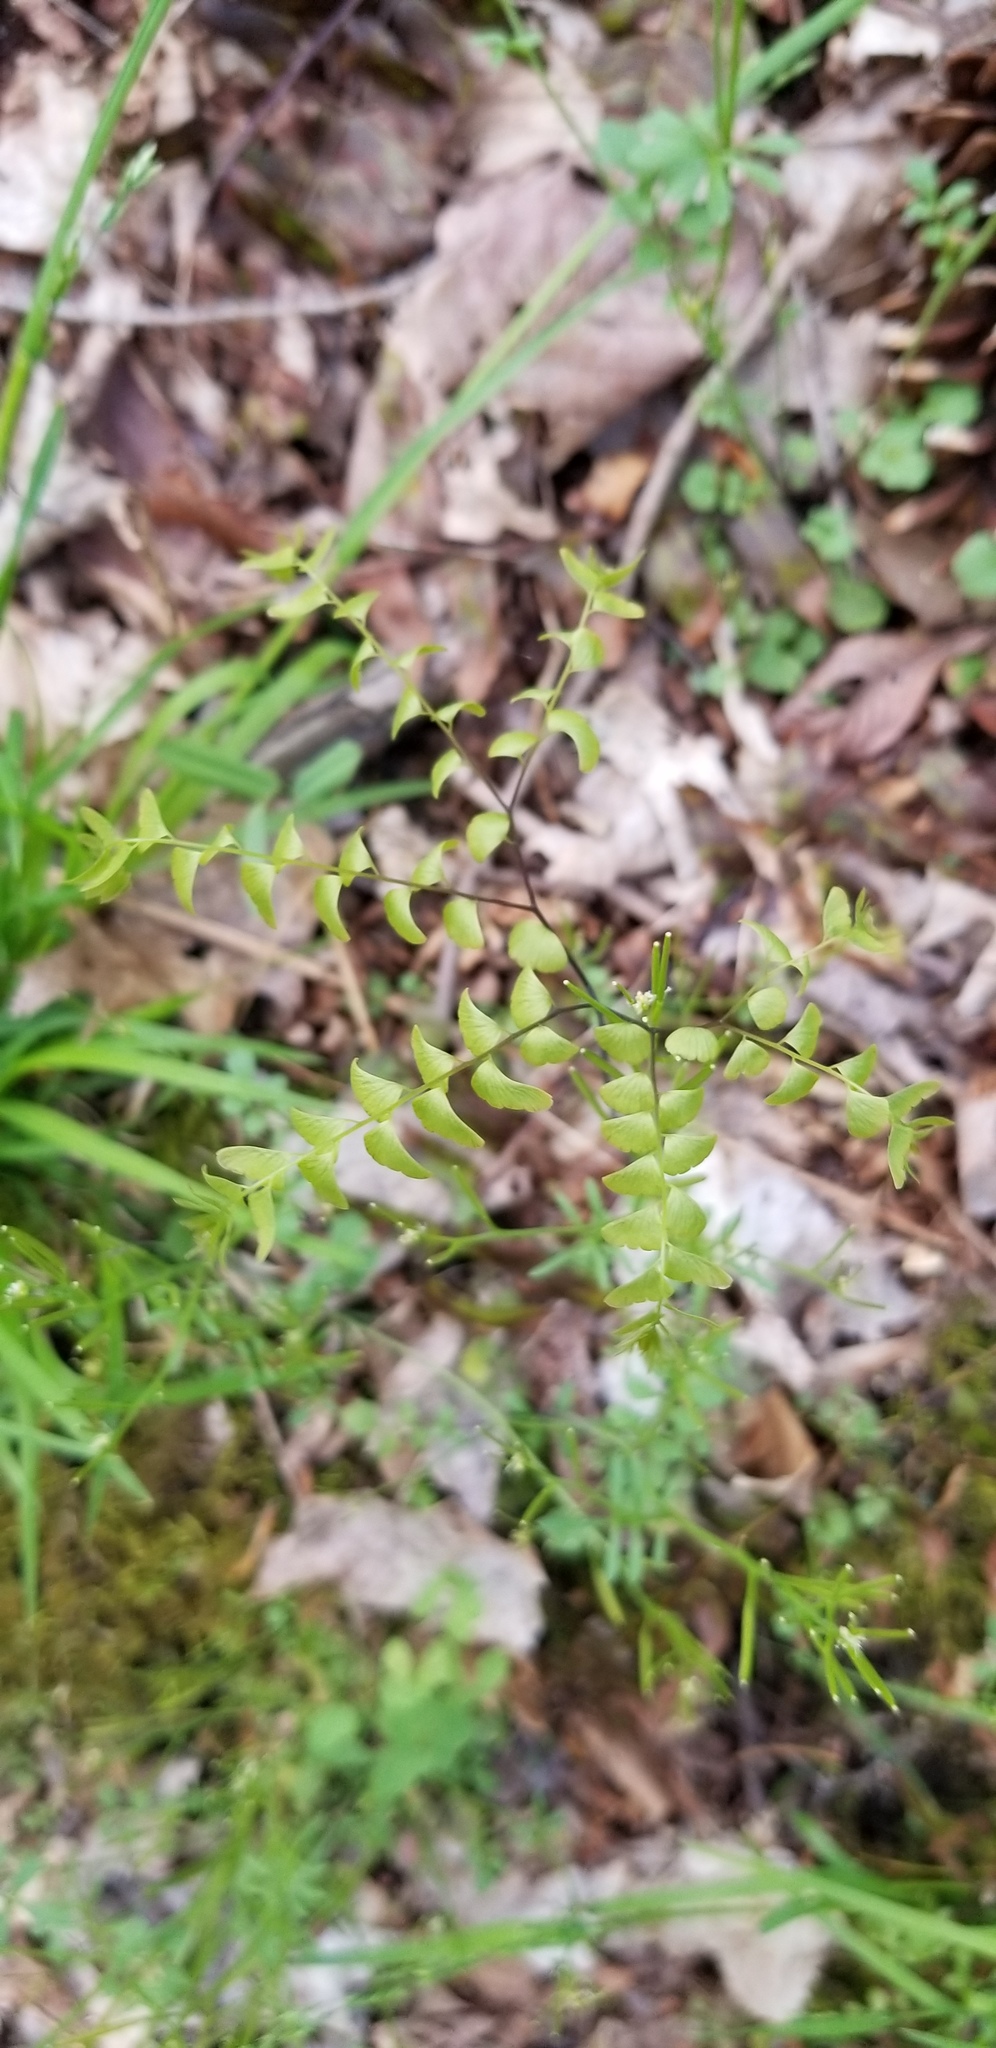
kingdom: Plantae
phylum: Tracheophyta
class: Polypodiopsida
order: Polypodiales
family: Pteridaceae
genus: Adiantum
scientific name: Adiantum pedatum
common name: Five-finger fern
